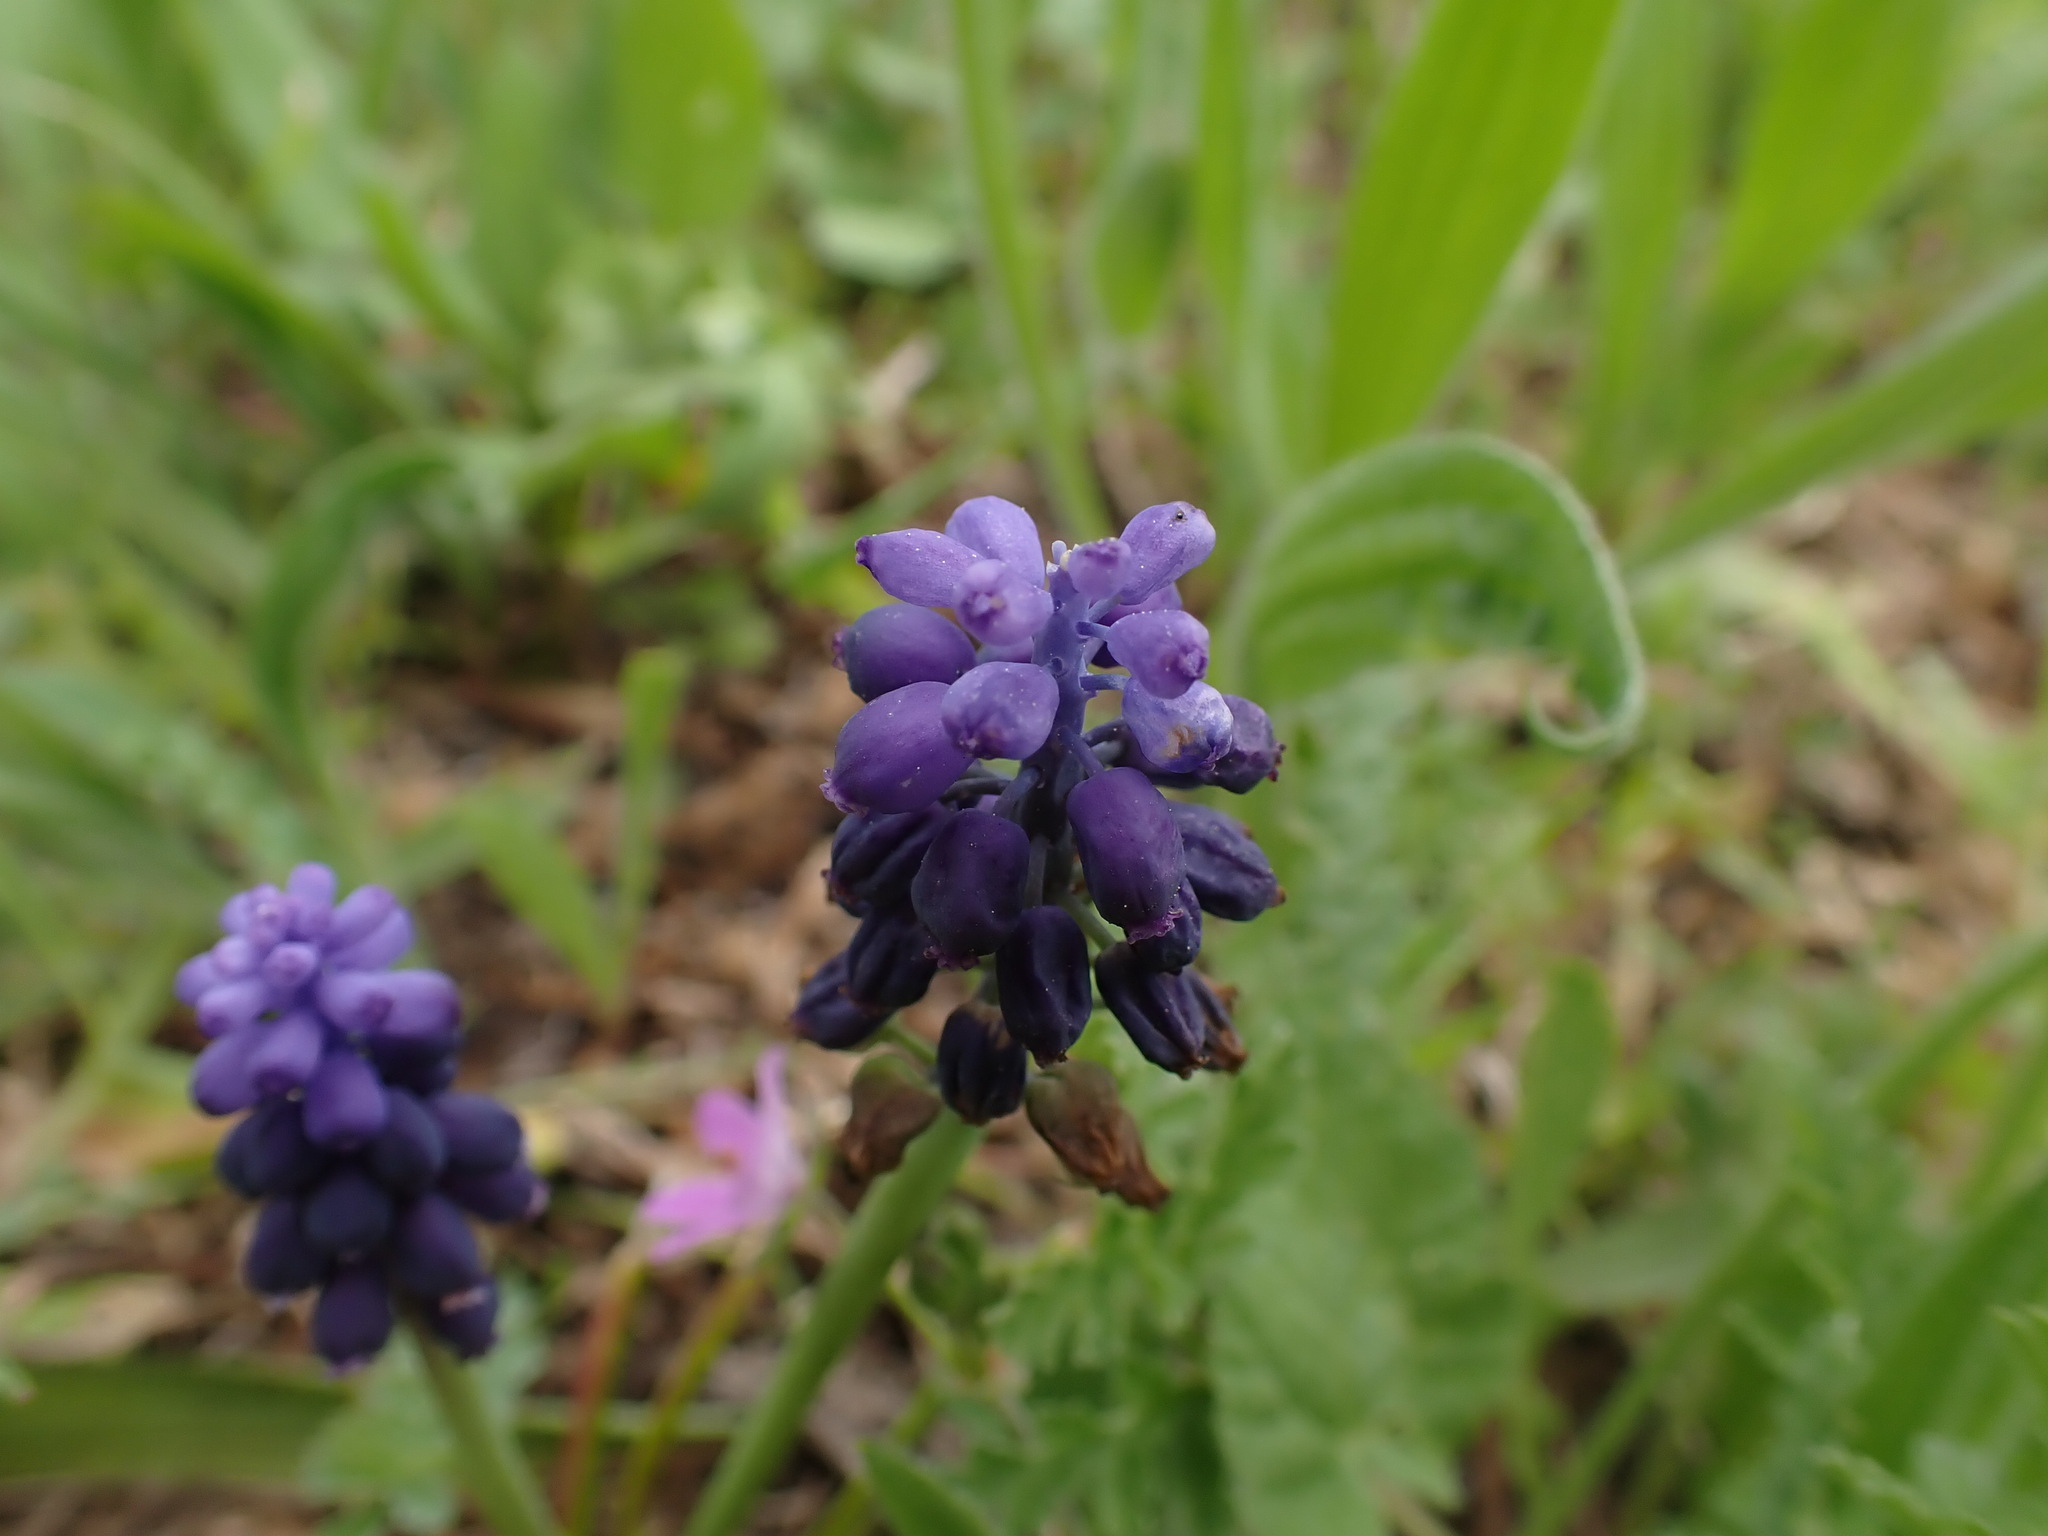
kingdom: Plantae
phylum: Tracheophyta
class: Liliopsida
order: Asparagales
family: Asparagaceae
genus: Muscari
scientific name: Muscari neglectum
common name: Grape-hyacinth
